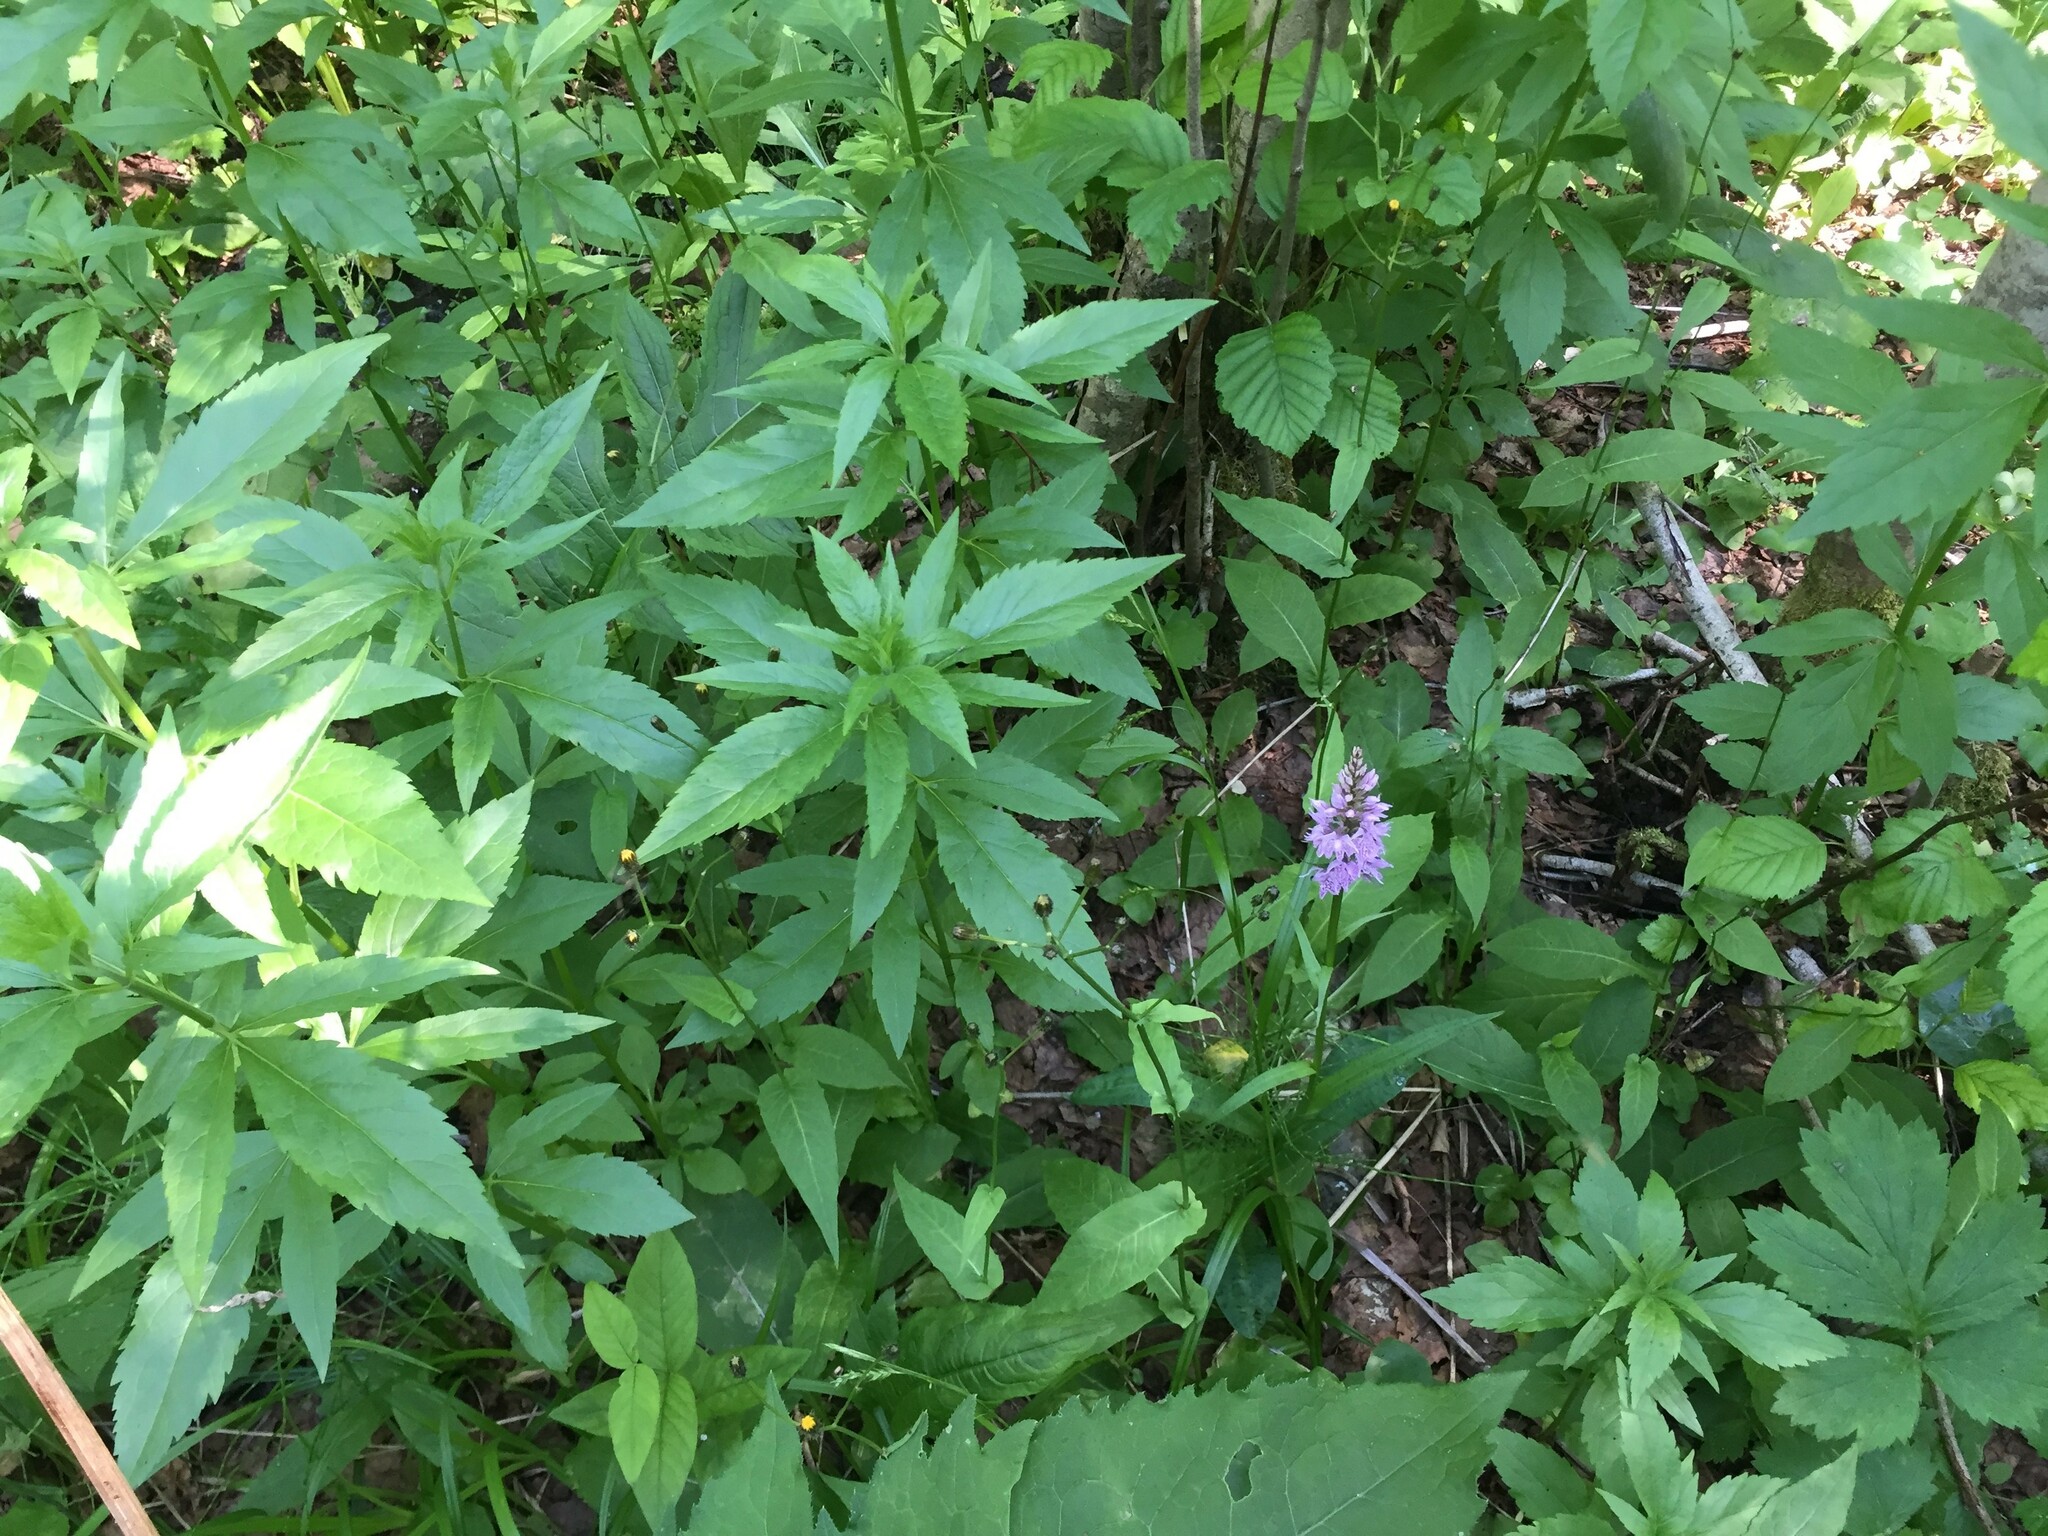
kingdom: Plantae
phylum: Tracheophyta
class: Magnoliopsida
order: Asterales
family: Asteraceae
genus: Eupatorium
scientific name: Eupatorium cannabinum
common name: Hemp-agrimony
